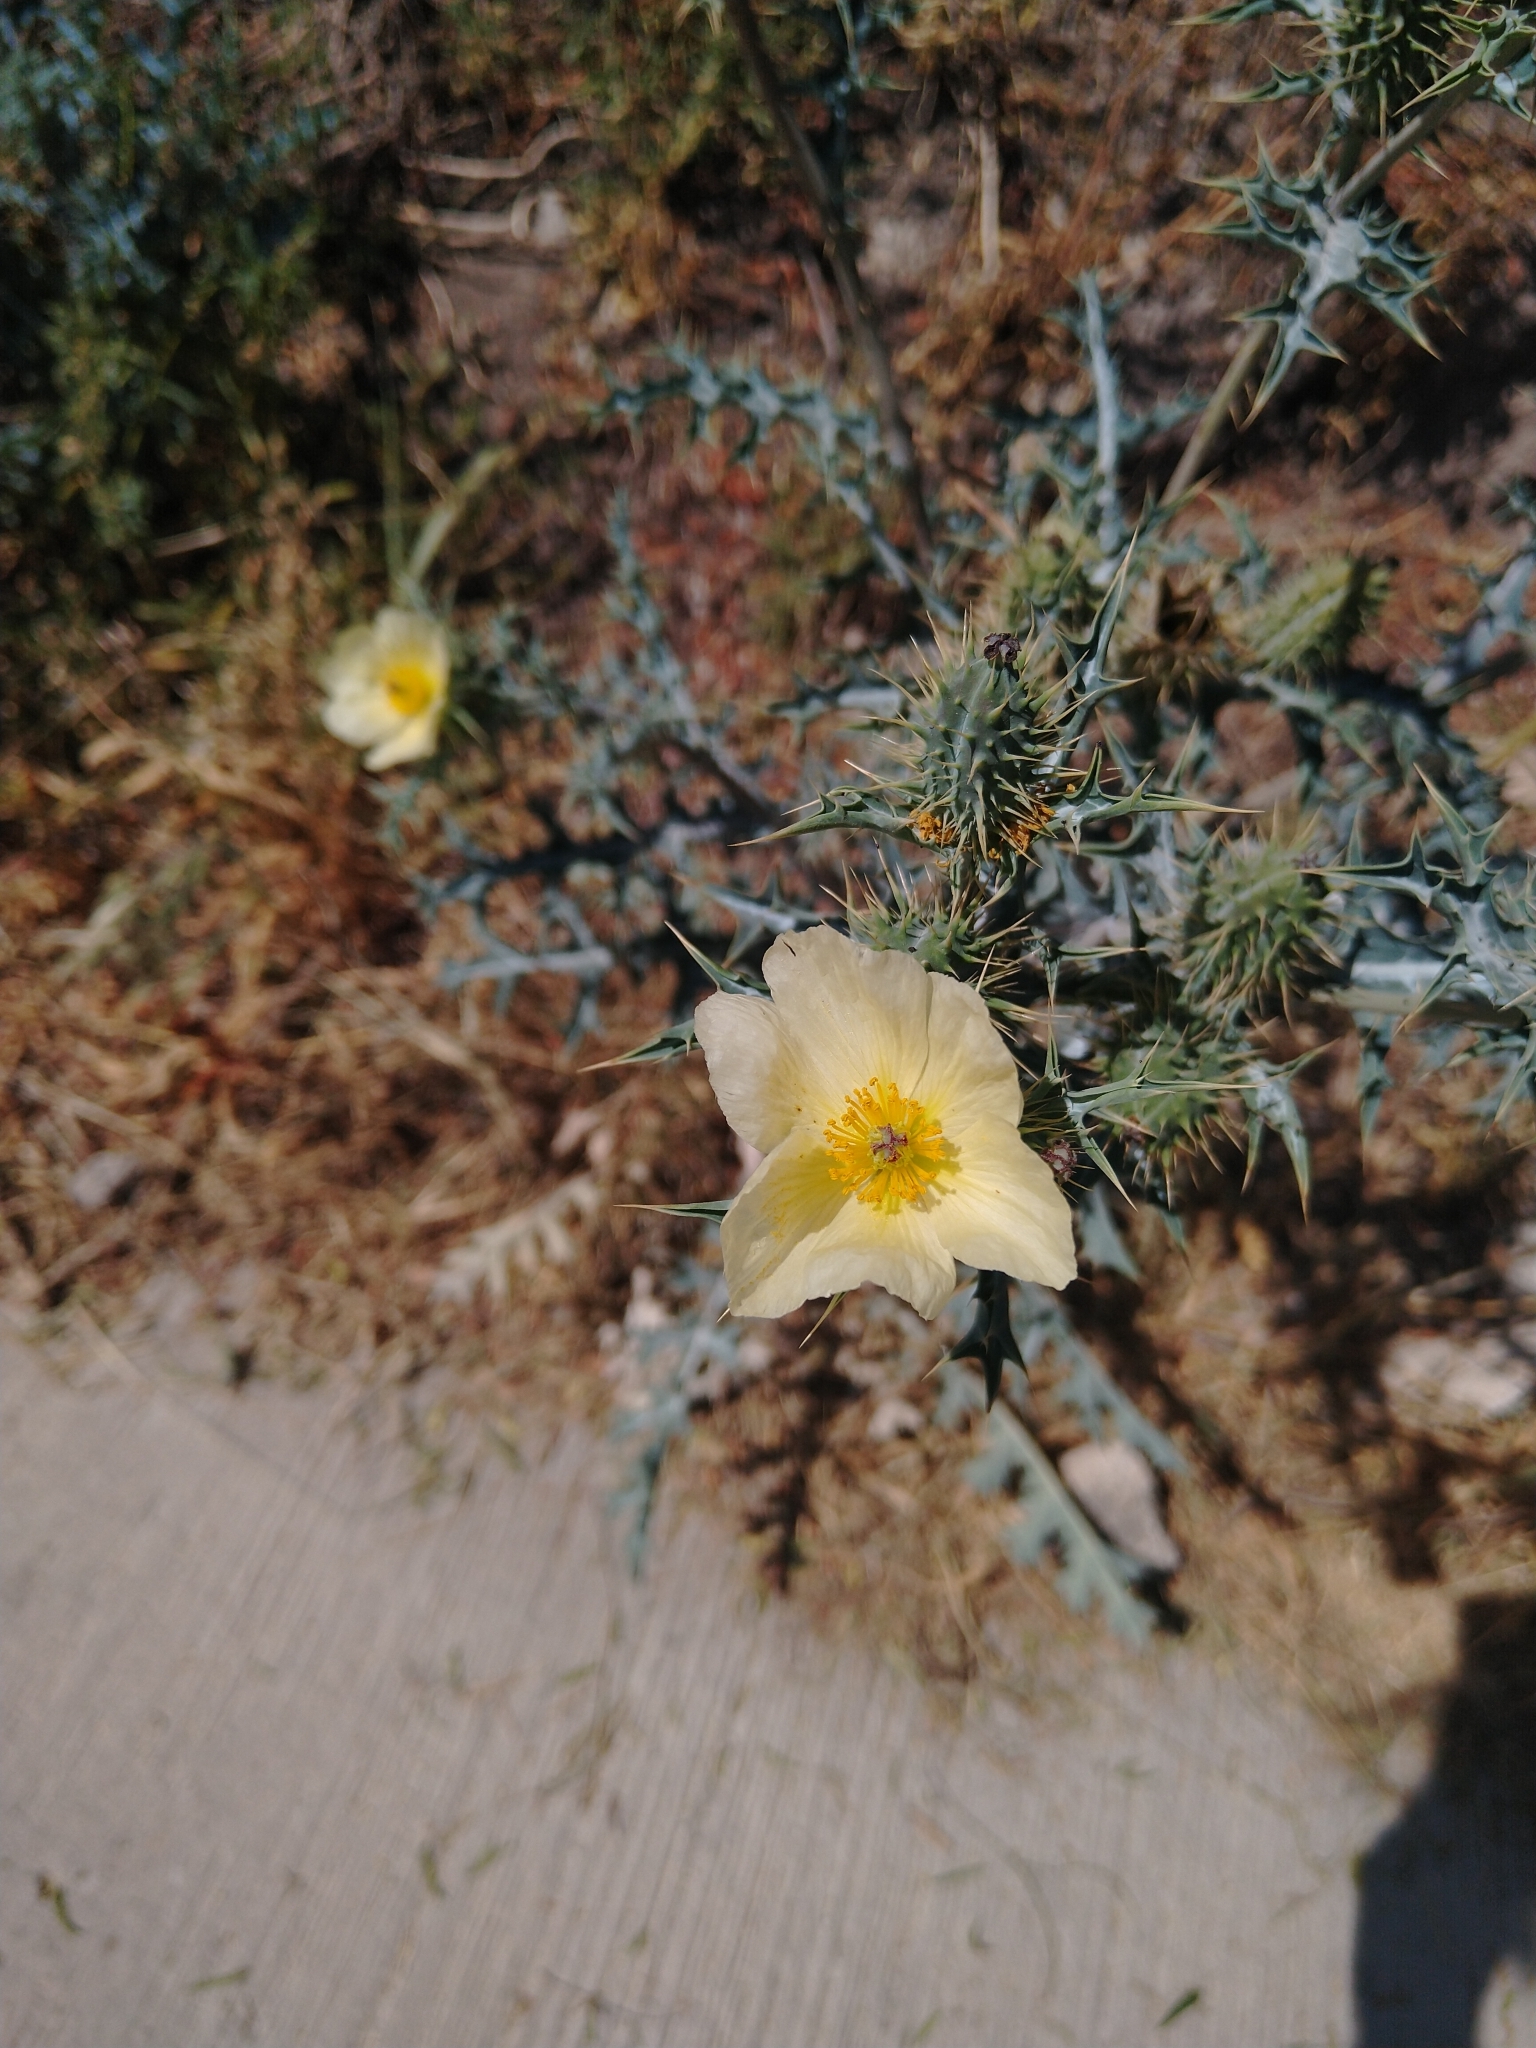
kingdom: Plantae
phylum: Tracheophyta
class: Magnoliopsida
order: Ranunculales
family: Papaveraceae
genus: Argemone
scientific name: Argemone ochroleuca
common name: White-flower mexican-poppy
